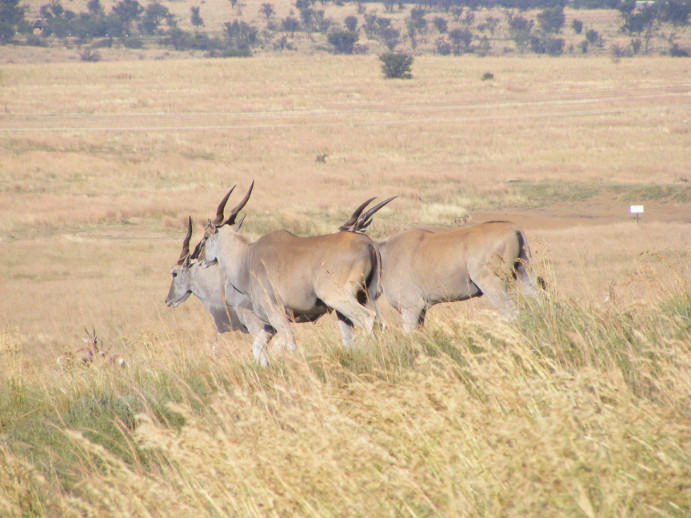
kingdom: Animalia
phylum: Chordata
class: Mammalia
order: Artiodactyla
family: Bovidae
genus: Taurotragus
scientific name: Taurotragus oryx
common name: Common eland
